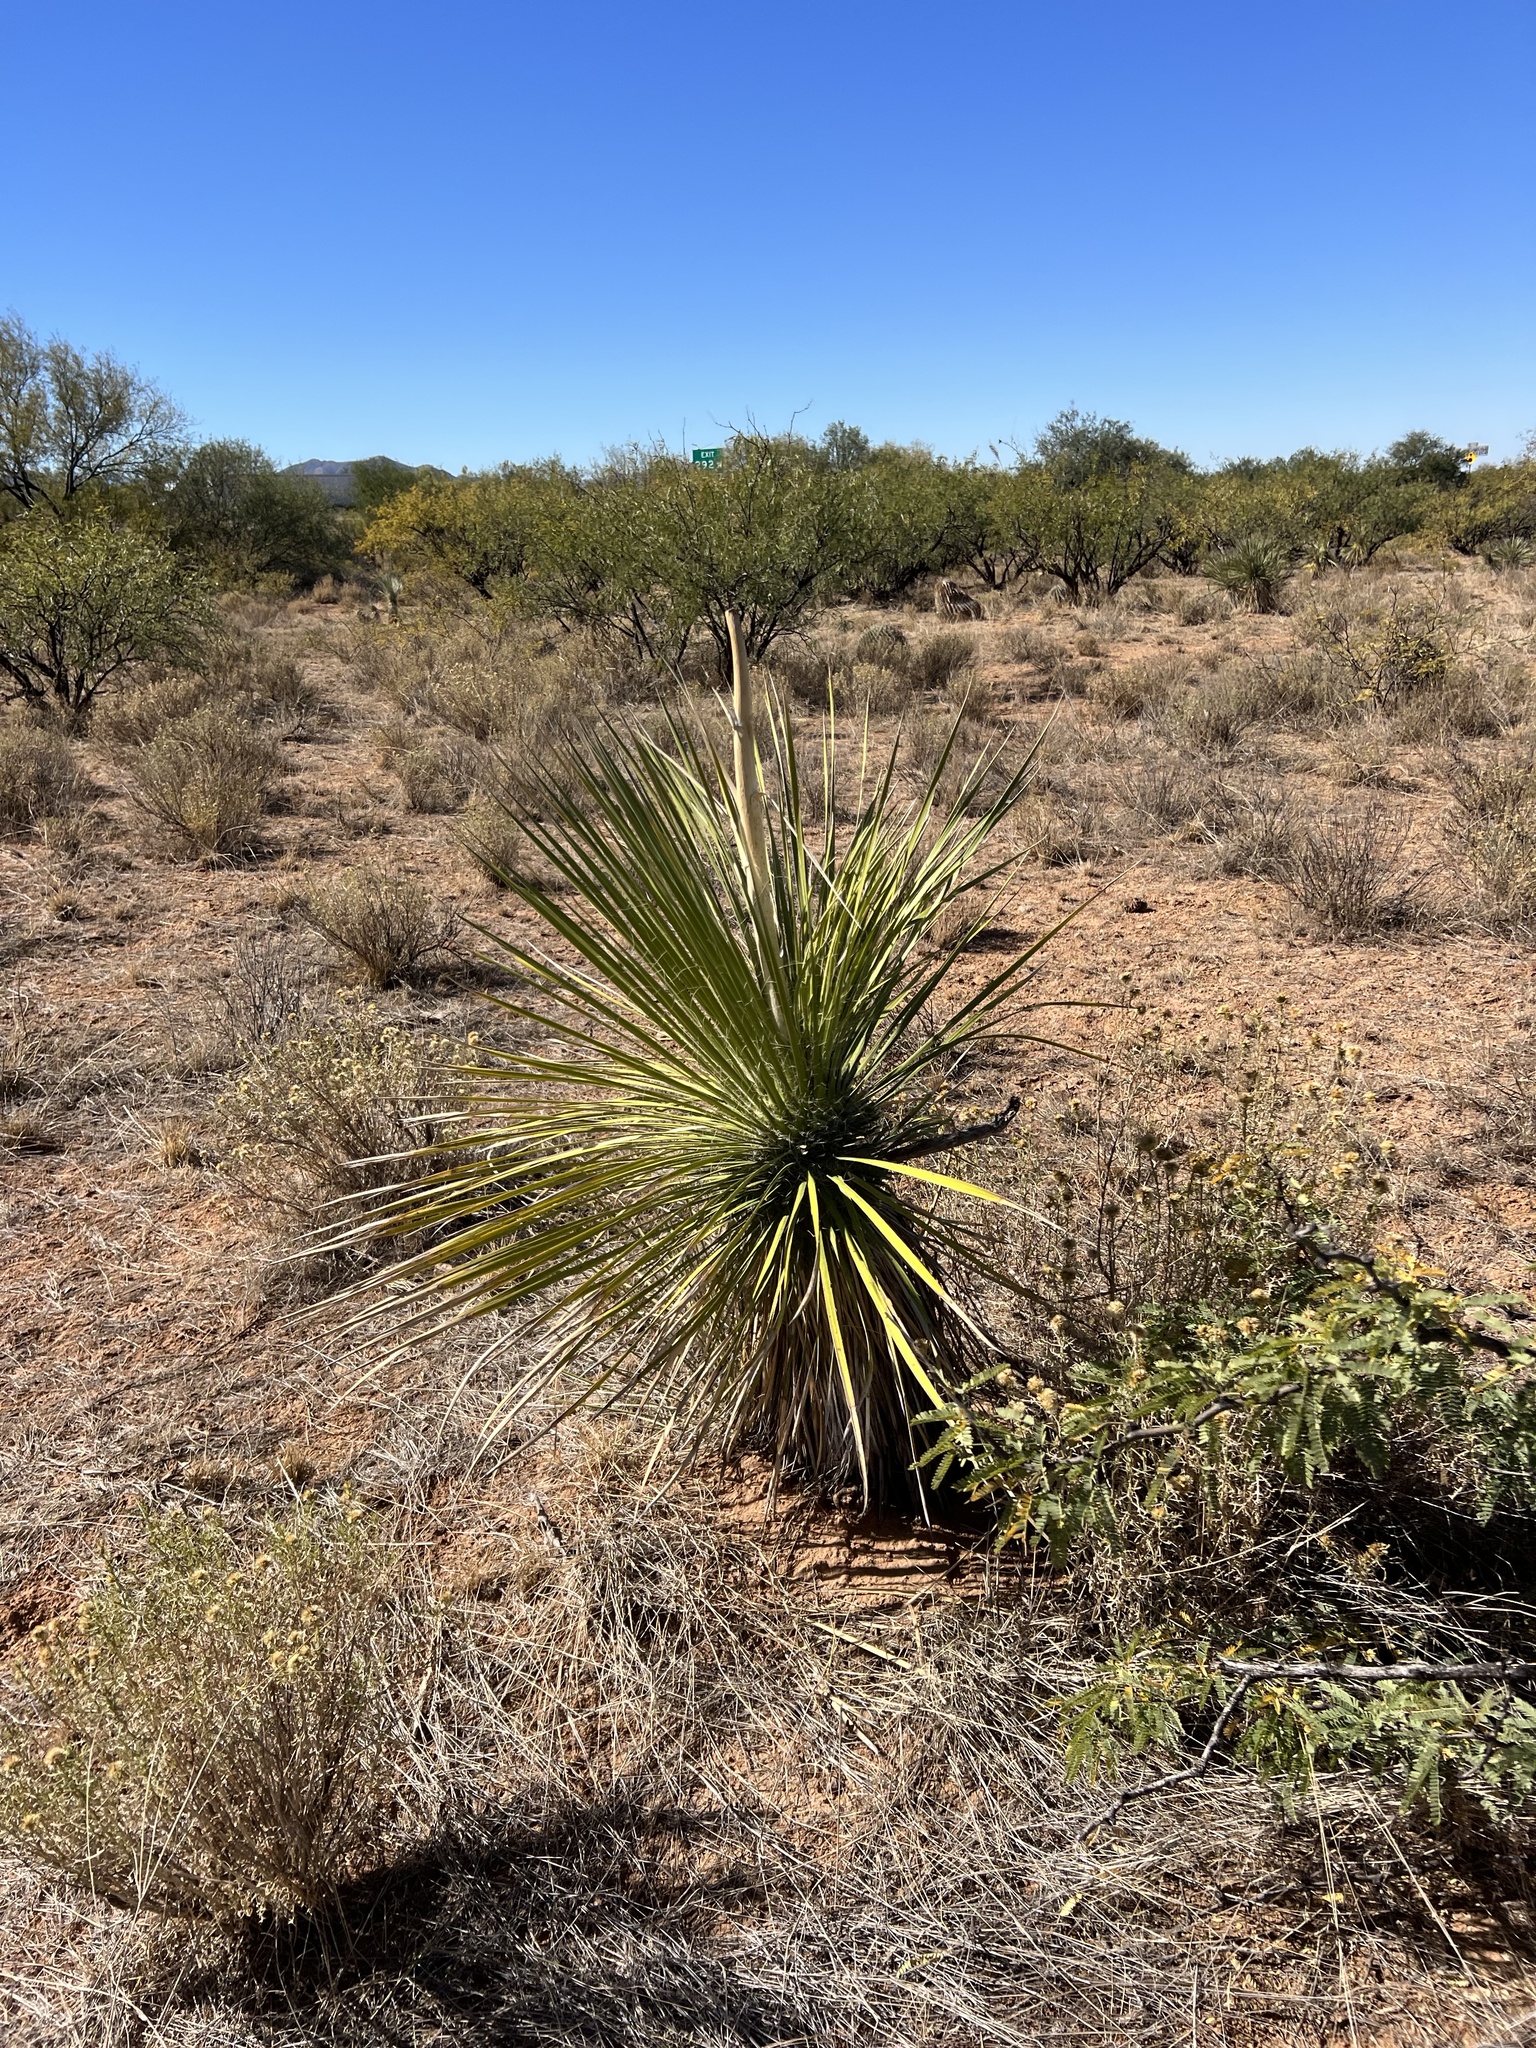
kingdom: Plantae
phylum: Tracheophyta
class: Liliopsida
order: Asparagales
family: Asparagaceae
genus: Yucca
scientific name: Yucca elata
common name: Palmella
